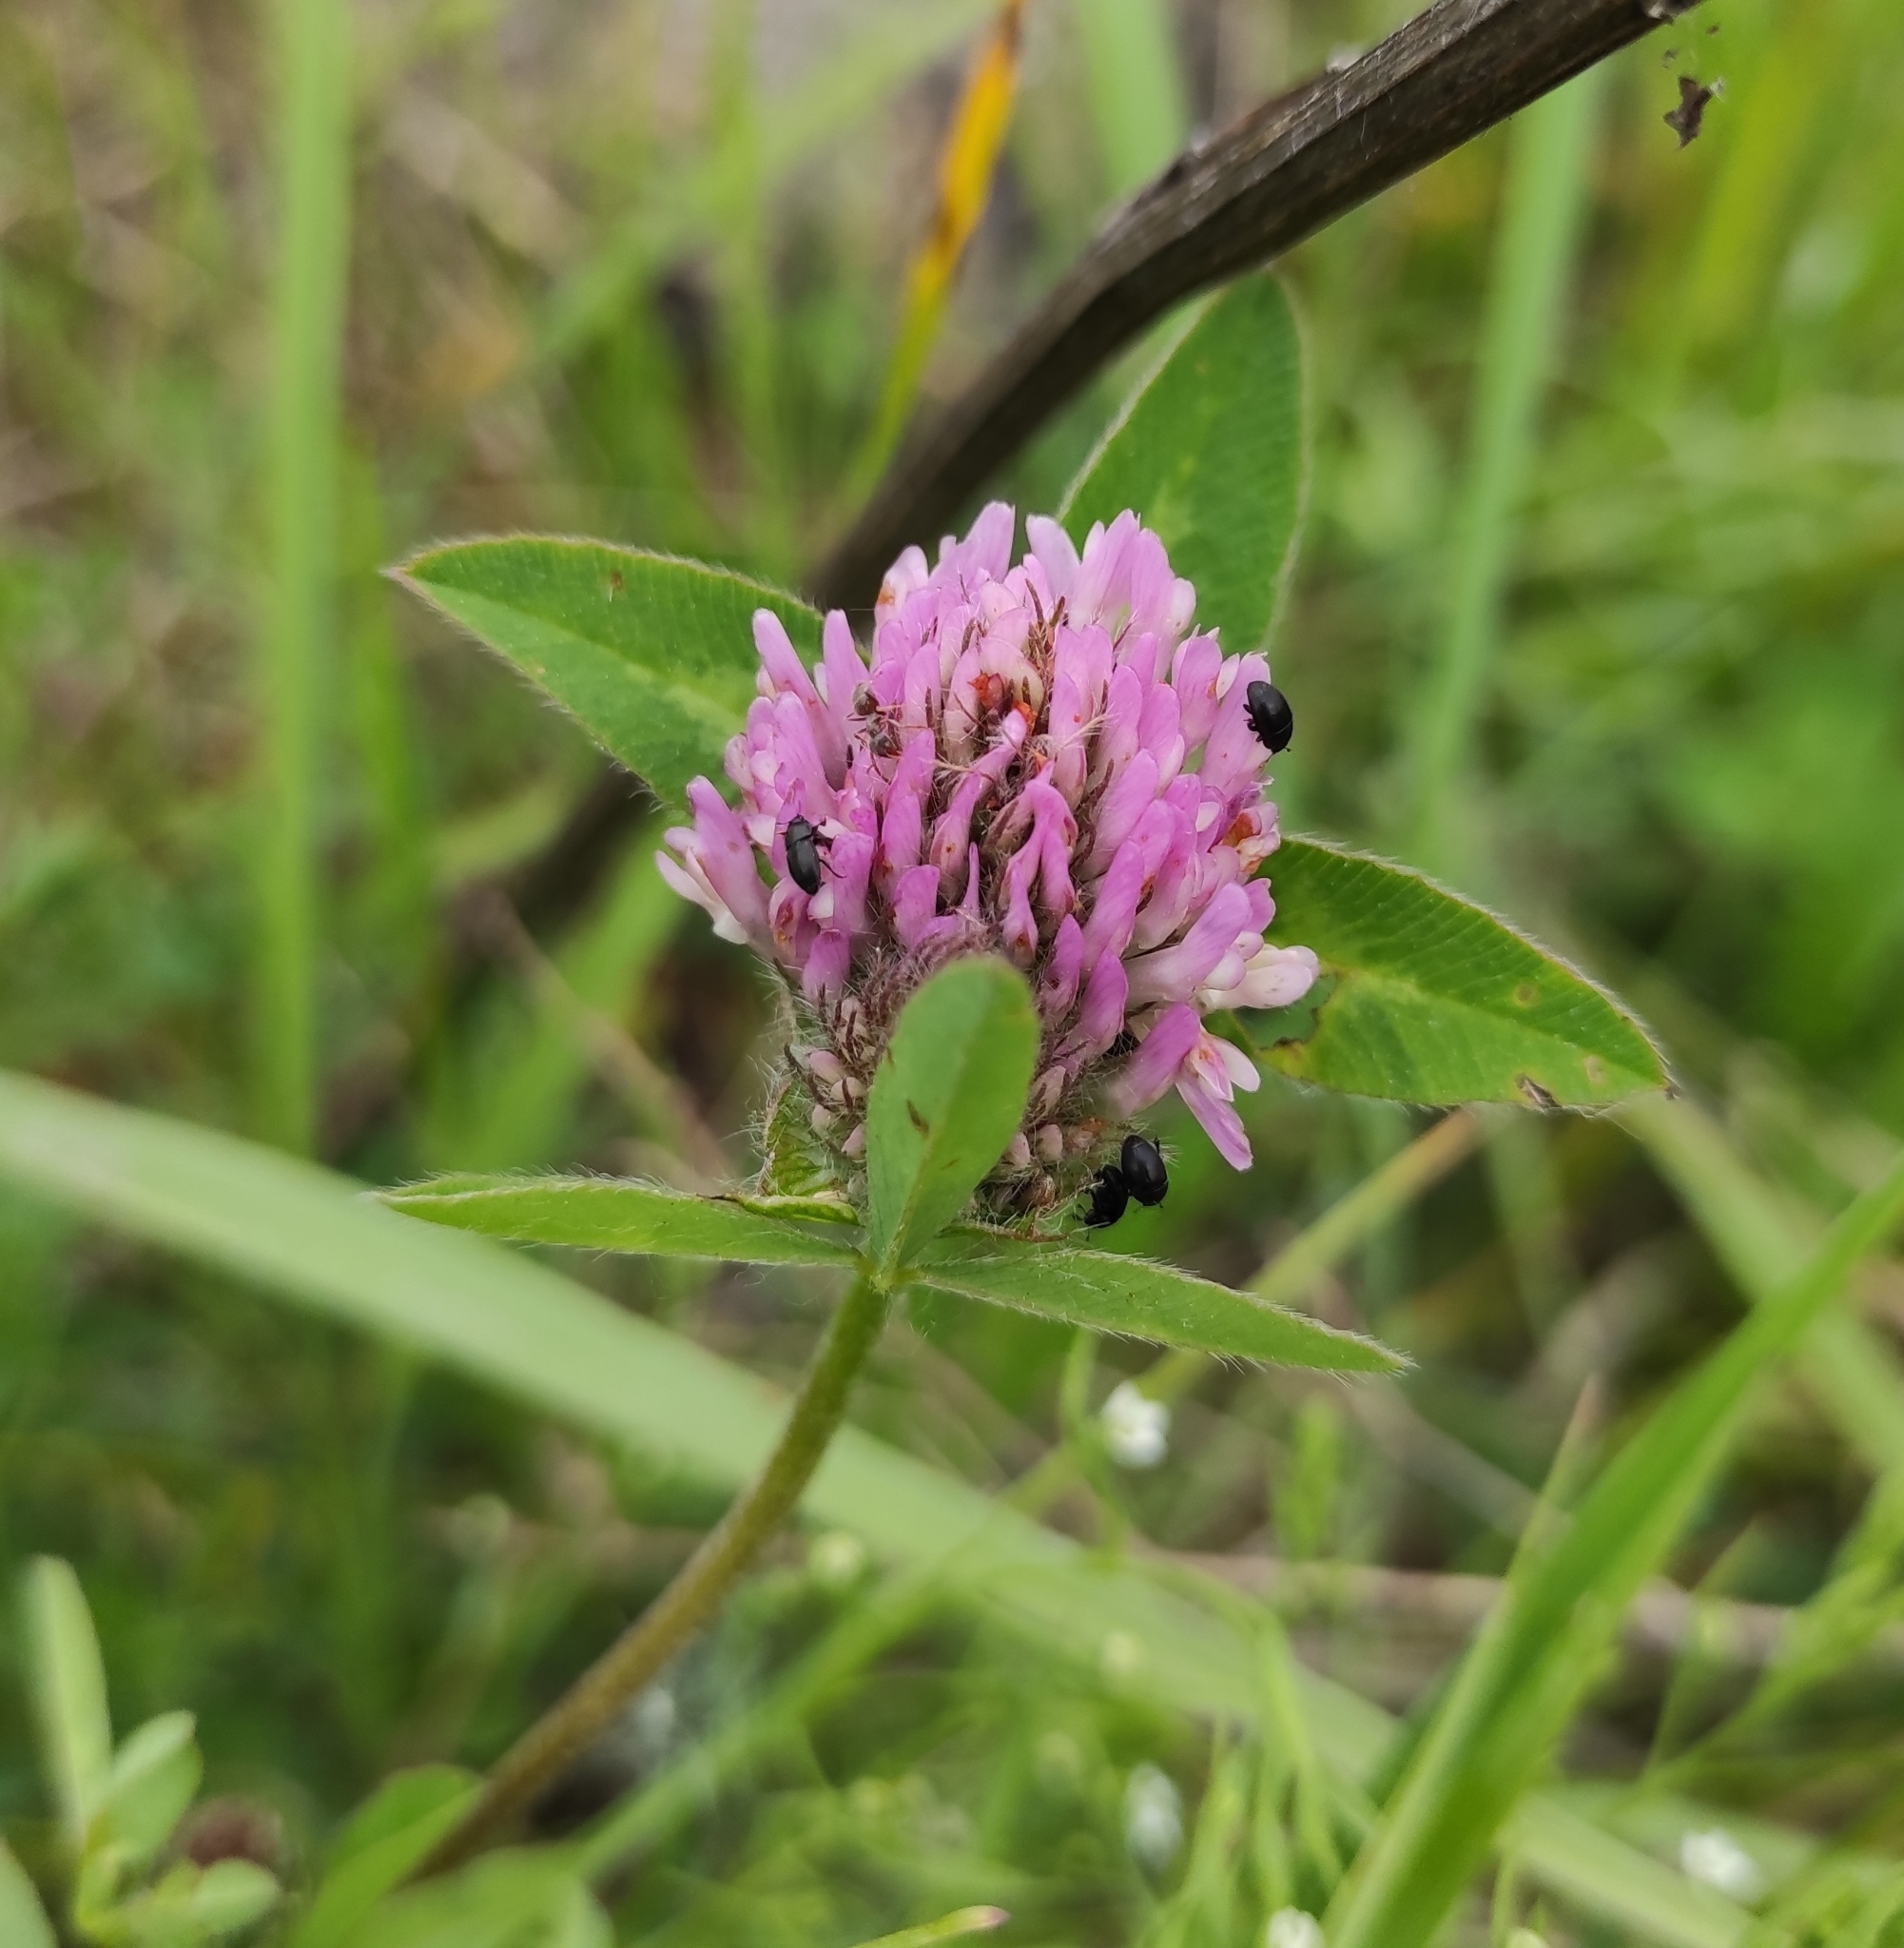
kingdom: Plantae
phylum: Tracheophyta
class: Magnoliopsida
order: Fabales
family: Fabaceae
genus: Trifolium
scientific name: Trifolium pratense
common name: Red clover
